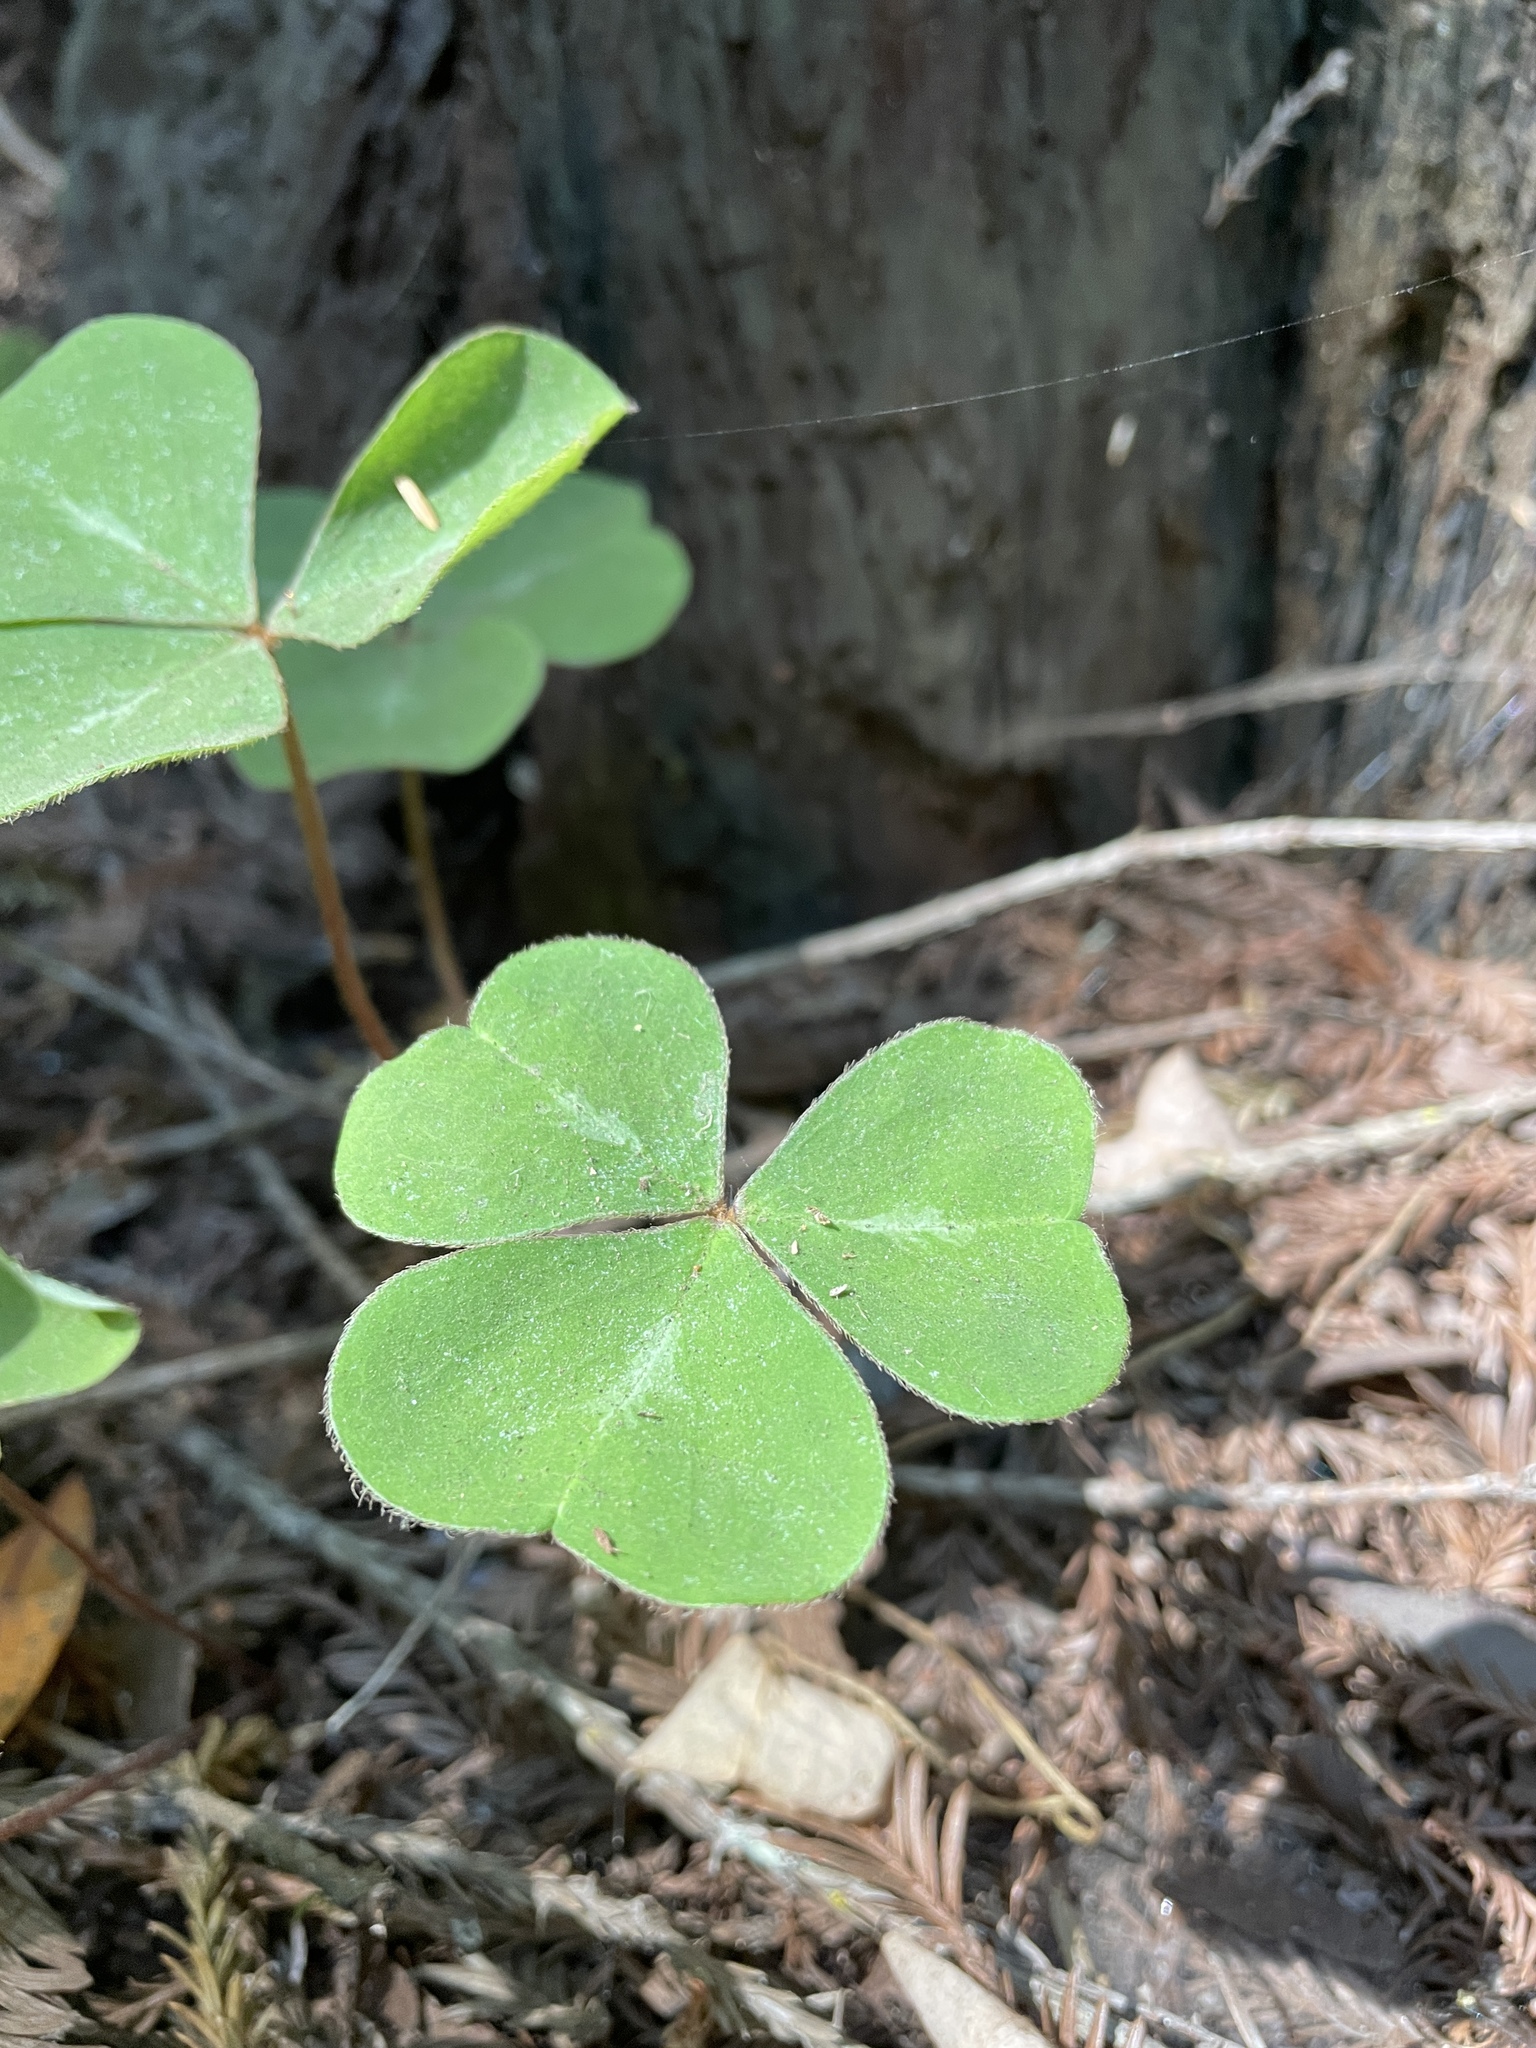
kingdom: Plantae
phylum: Tracheophyta
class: Magnoliopsida
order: Oxalidales
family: Oxalidaceae
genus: Oxalis
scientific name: Oxalis oregana
